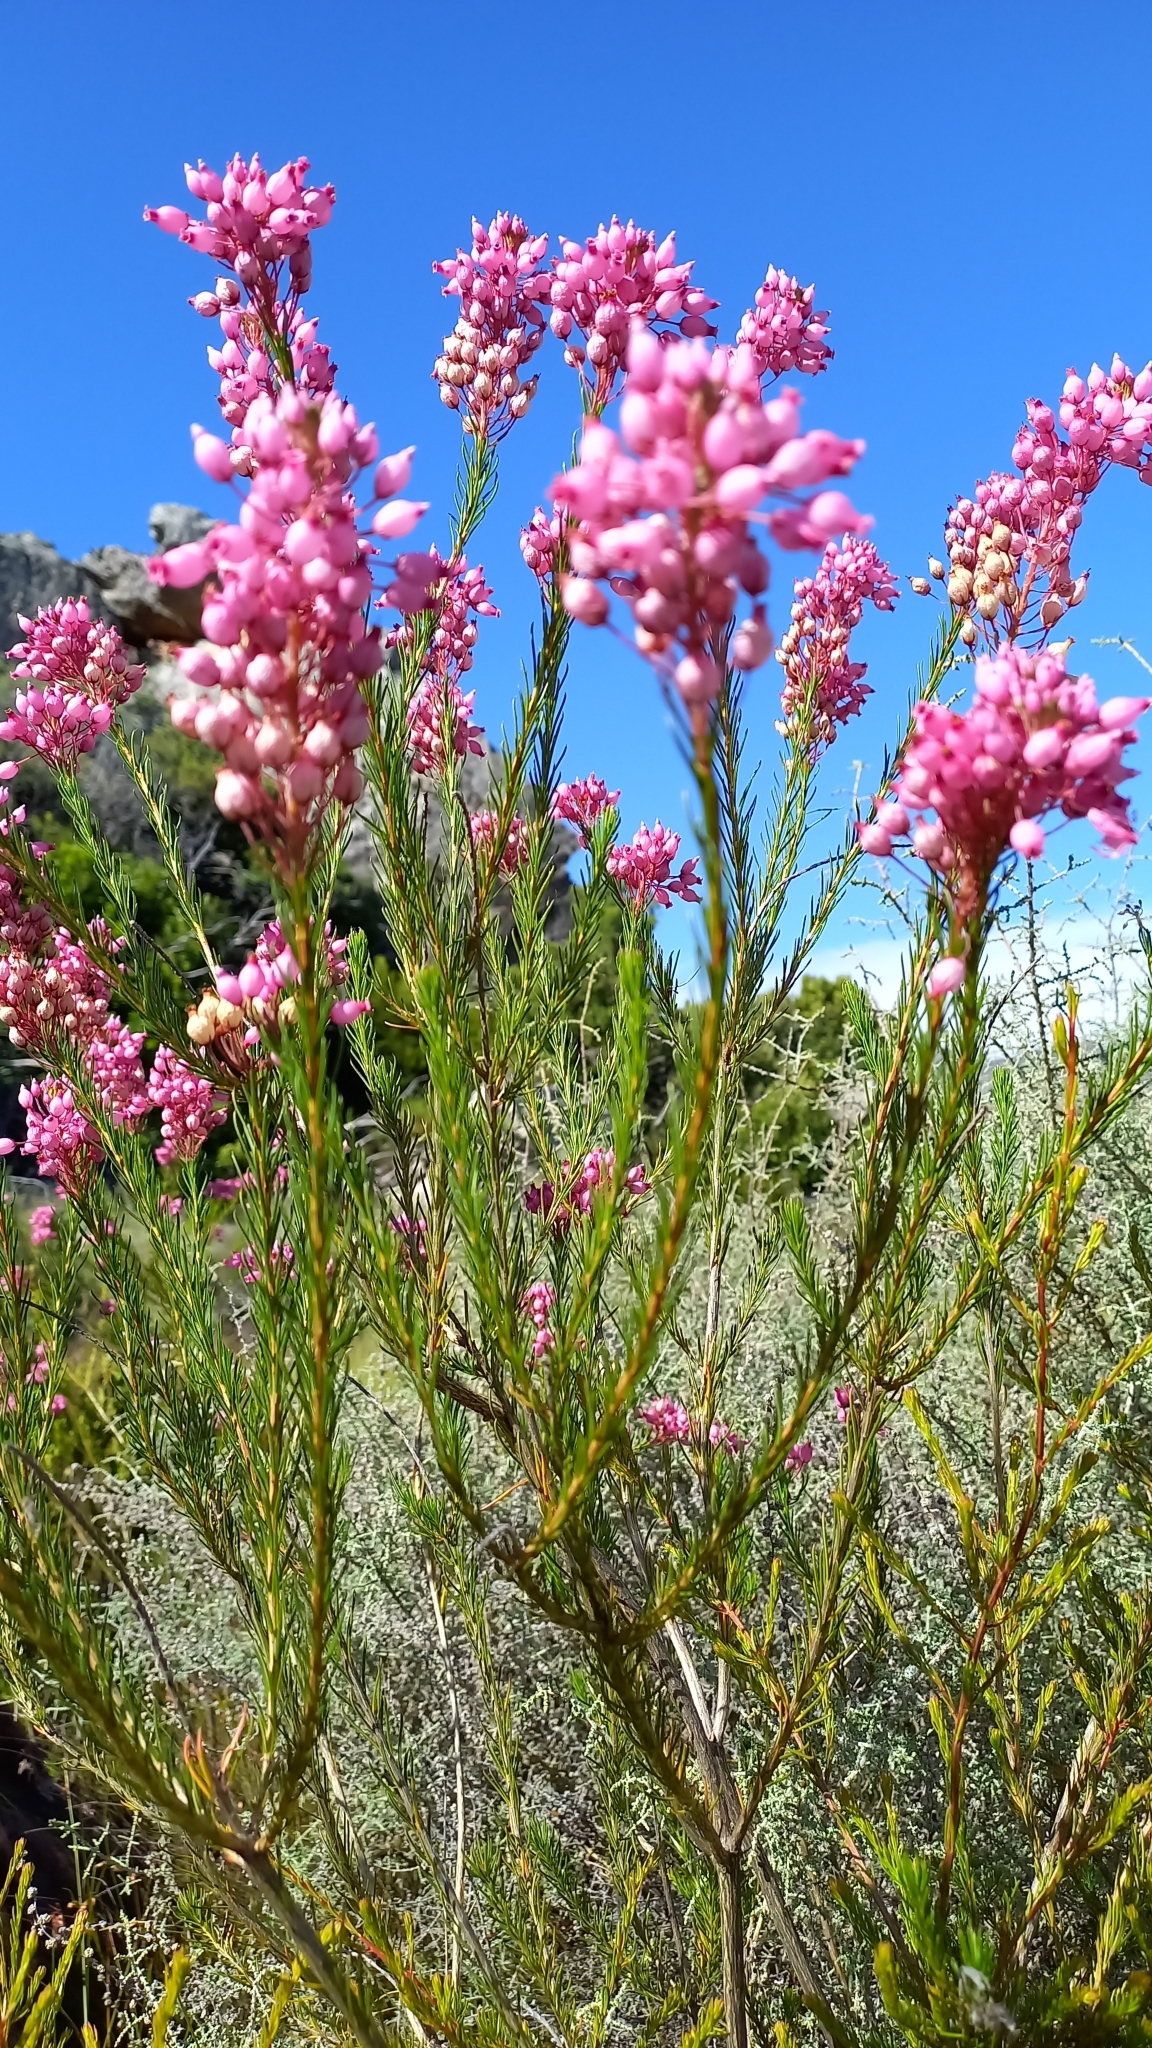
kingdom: Plantae
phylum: Tracheophyta
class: Magnoliopsida
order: Ericales
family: Ericaceae
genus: Erica
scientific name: Erica inflata
